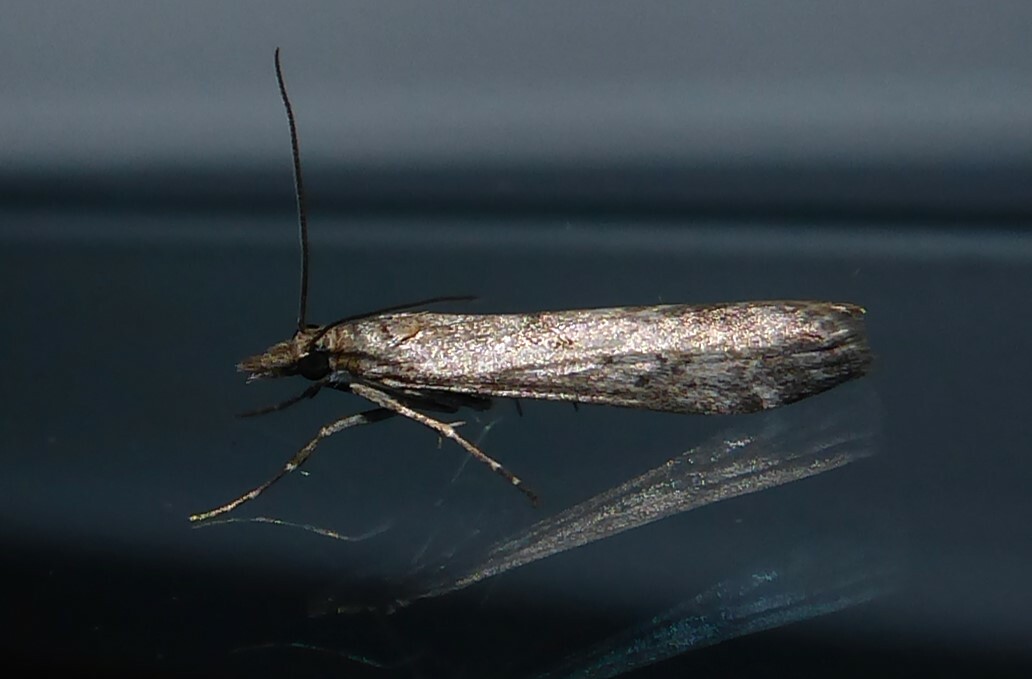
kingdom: Animalia
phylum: Arthropoda
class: Insecta
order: Lepidoptera
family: Crambidae
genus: Eudonia
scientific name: Eudonia leptalea
